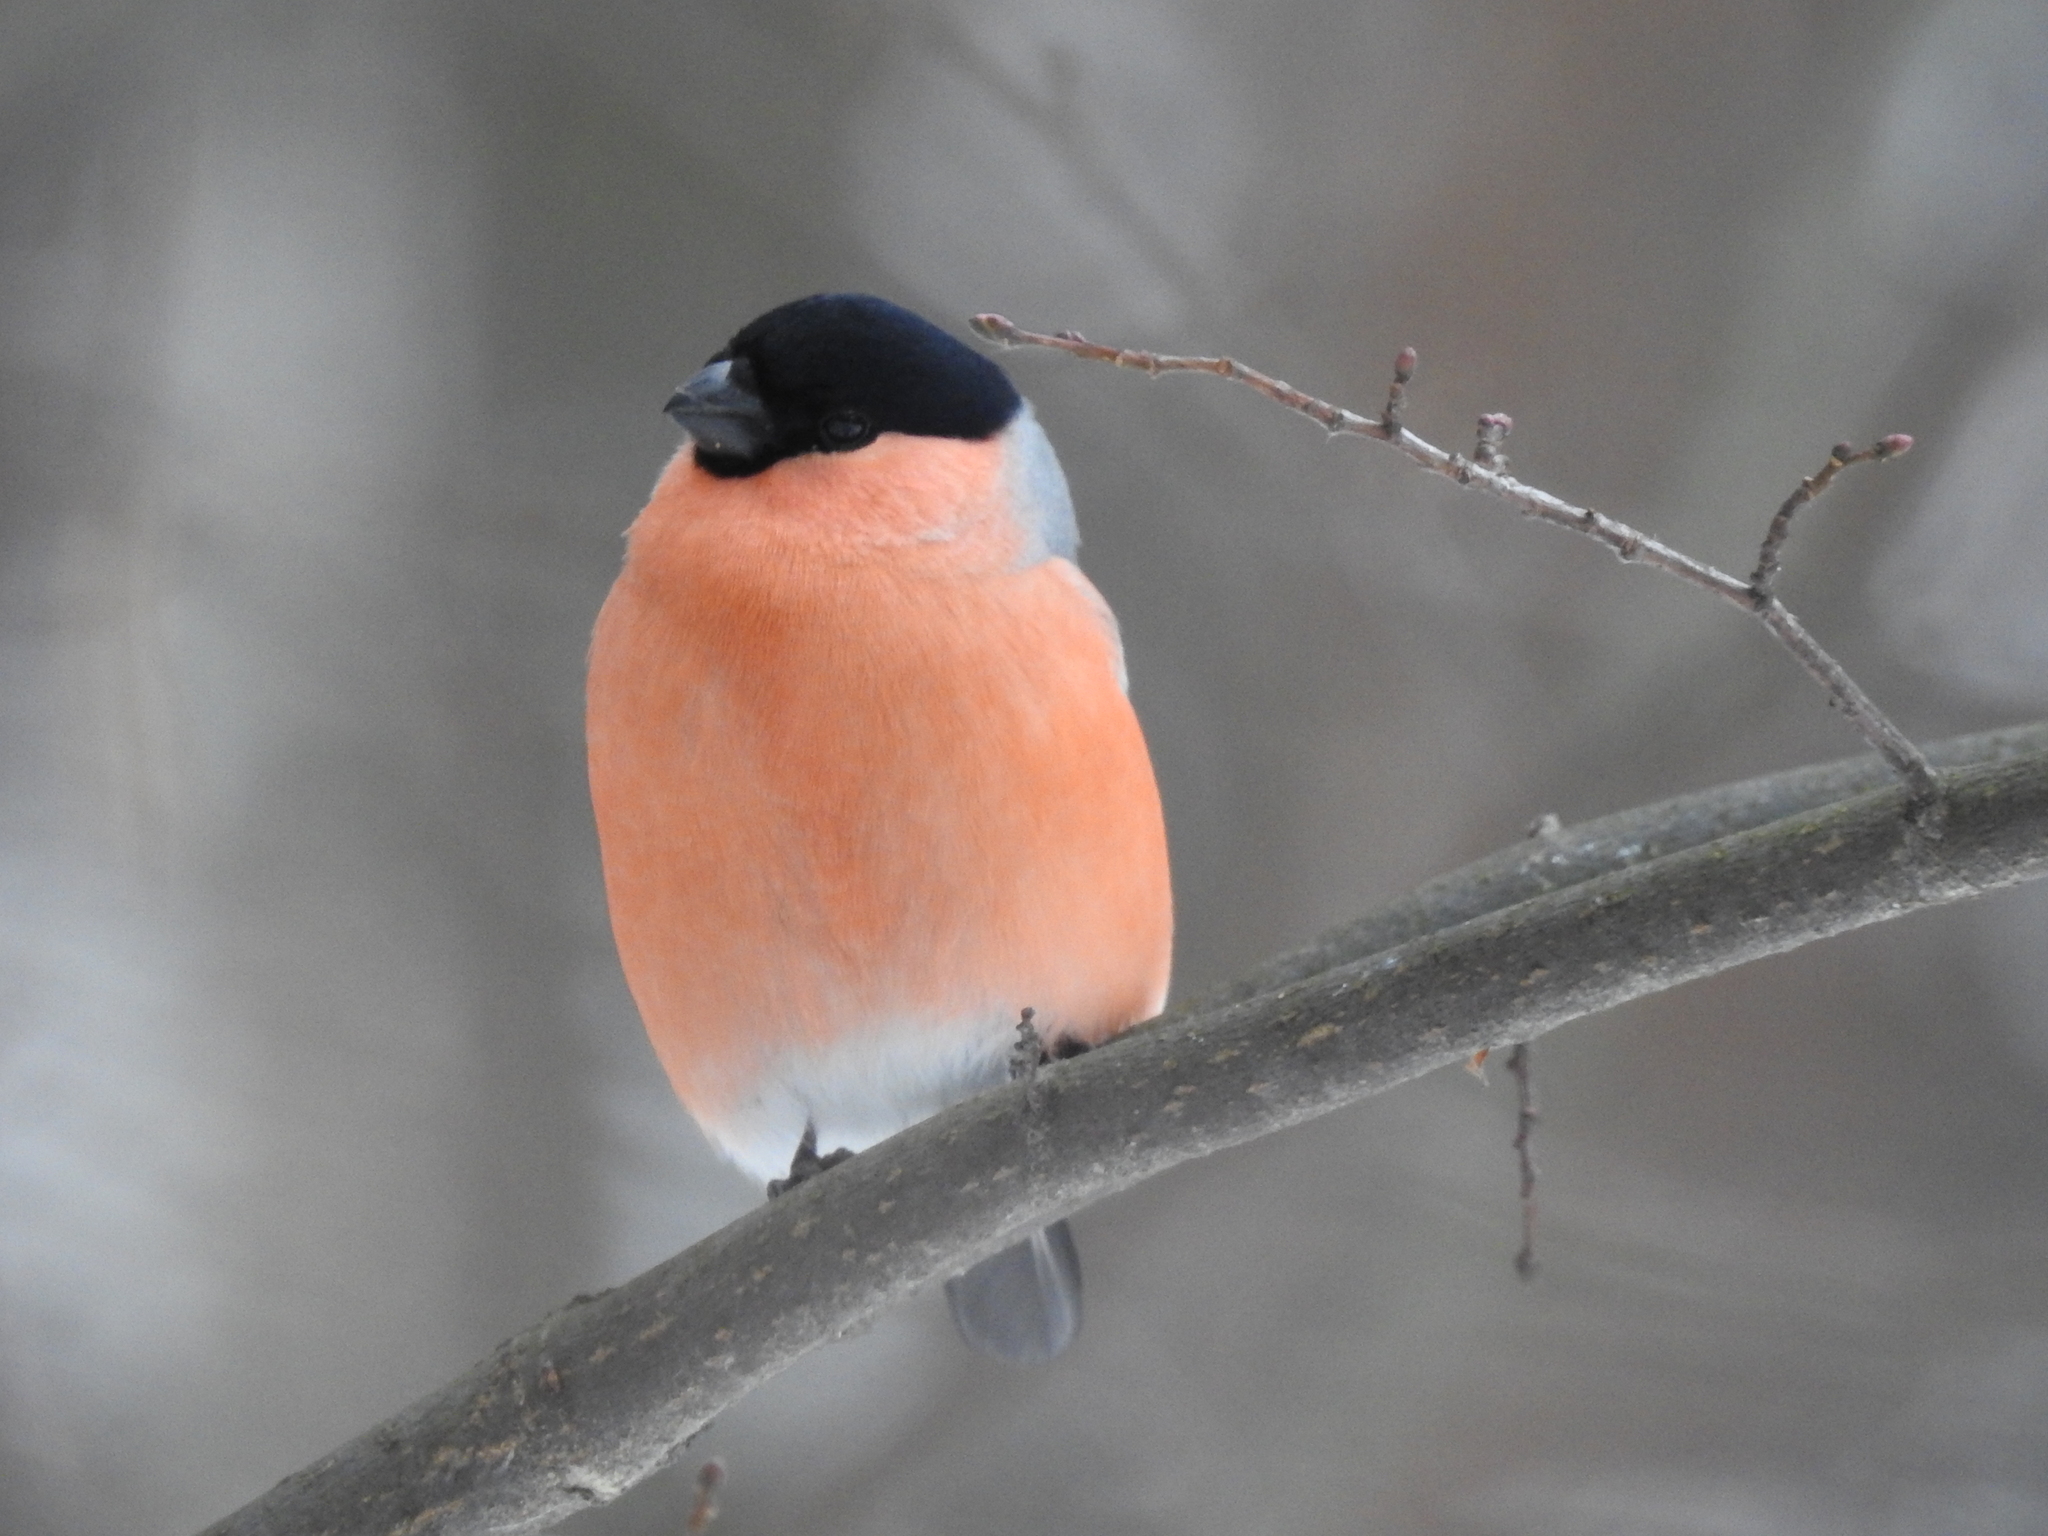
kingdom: Animalia
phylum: Chordata
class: Aves
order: Passeriformes
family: Fringillidae
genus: Pyrrhula
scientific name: Pyrrhula pyrrhula
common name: Eurasian bullfinch
